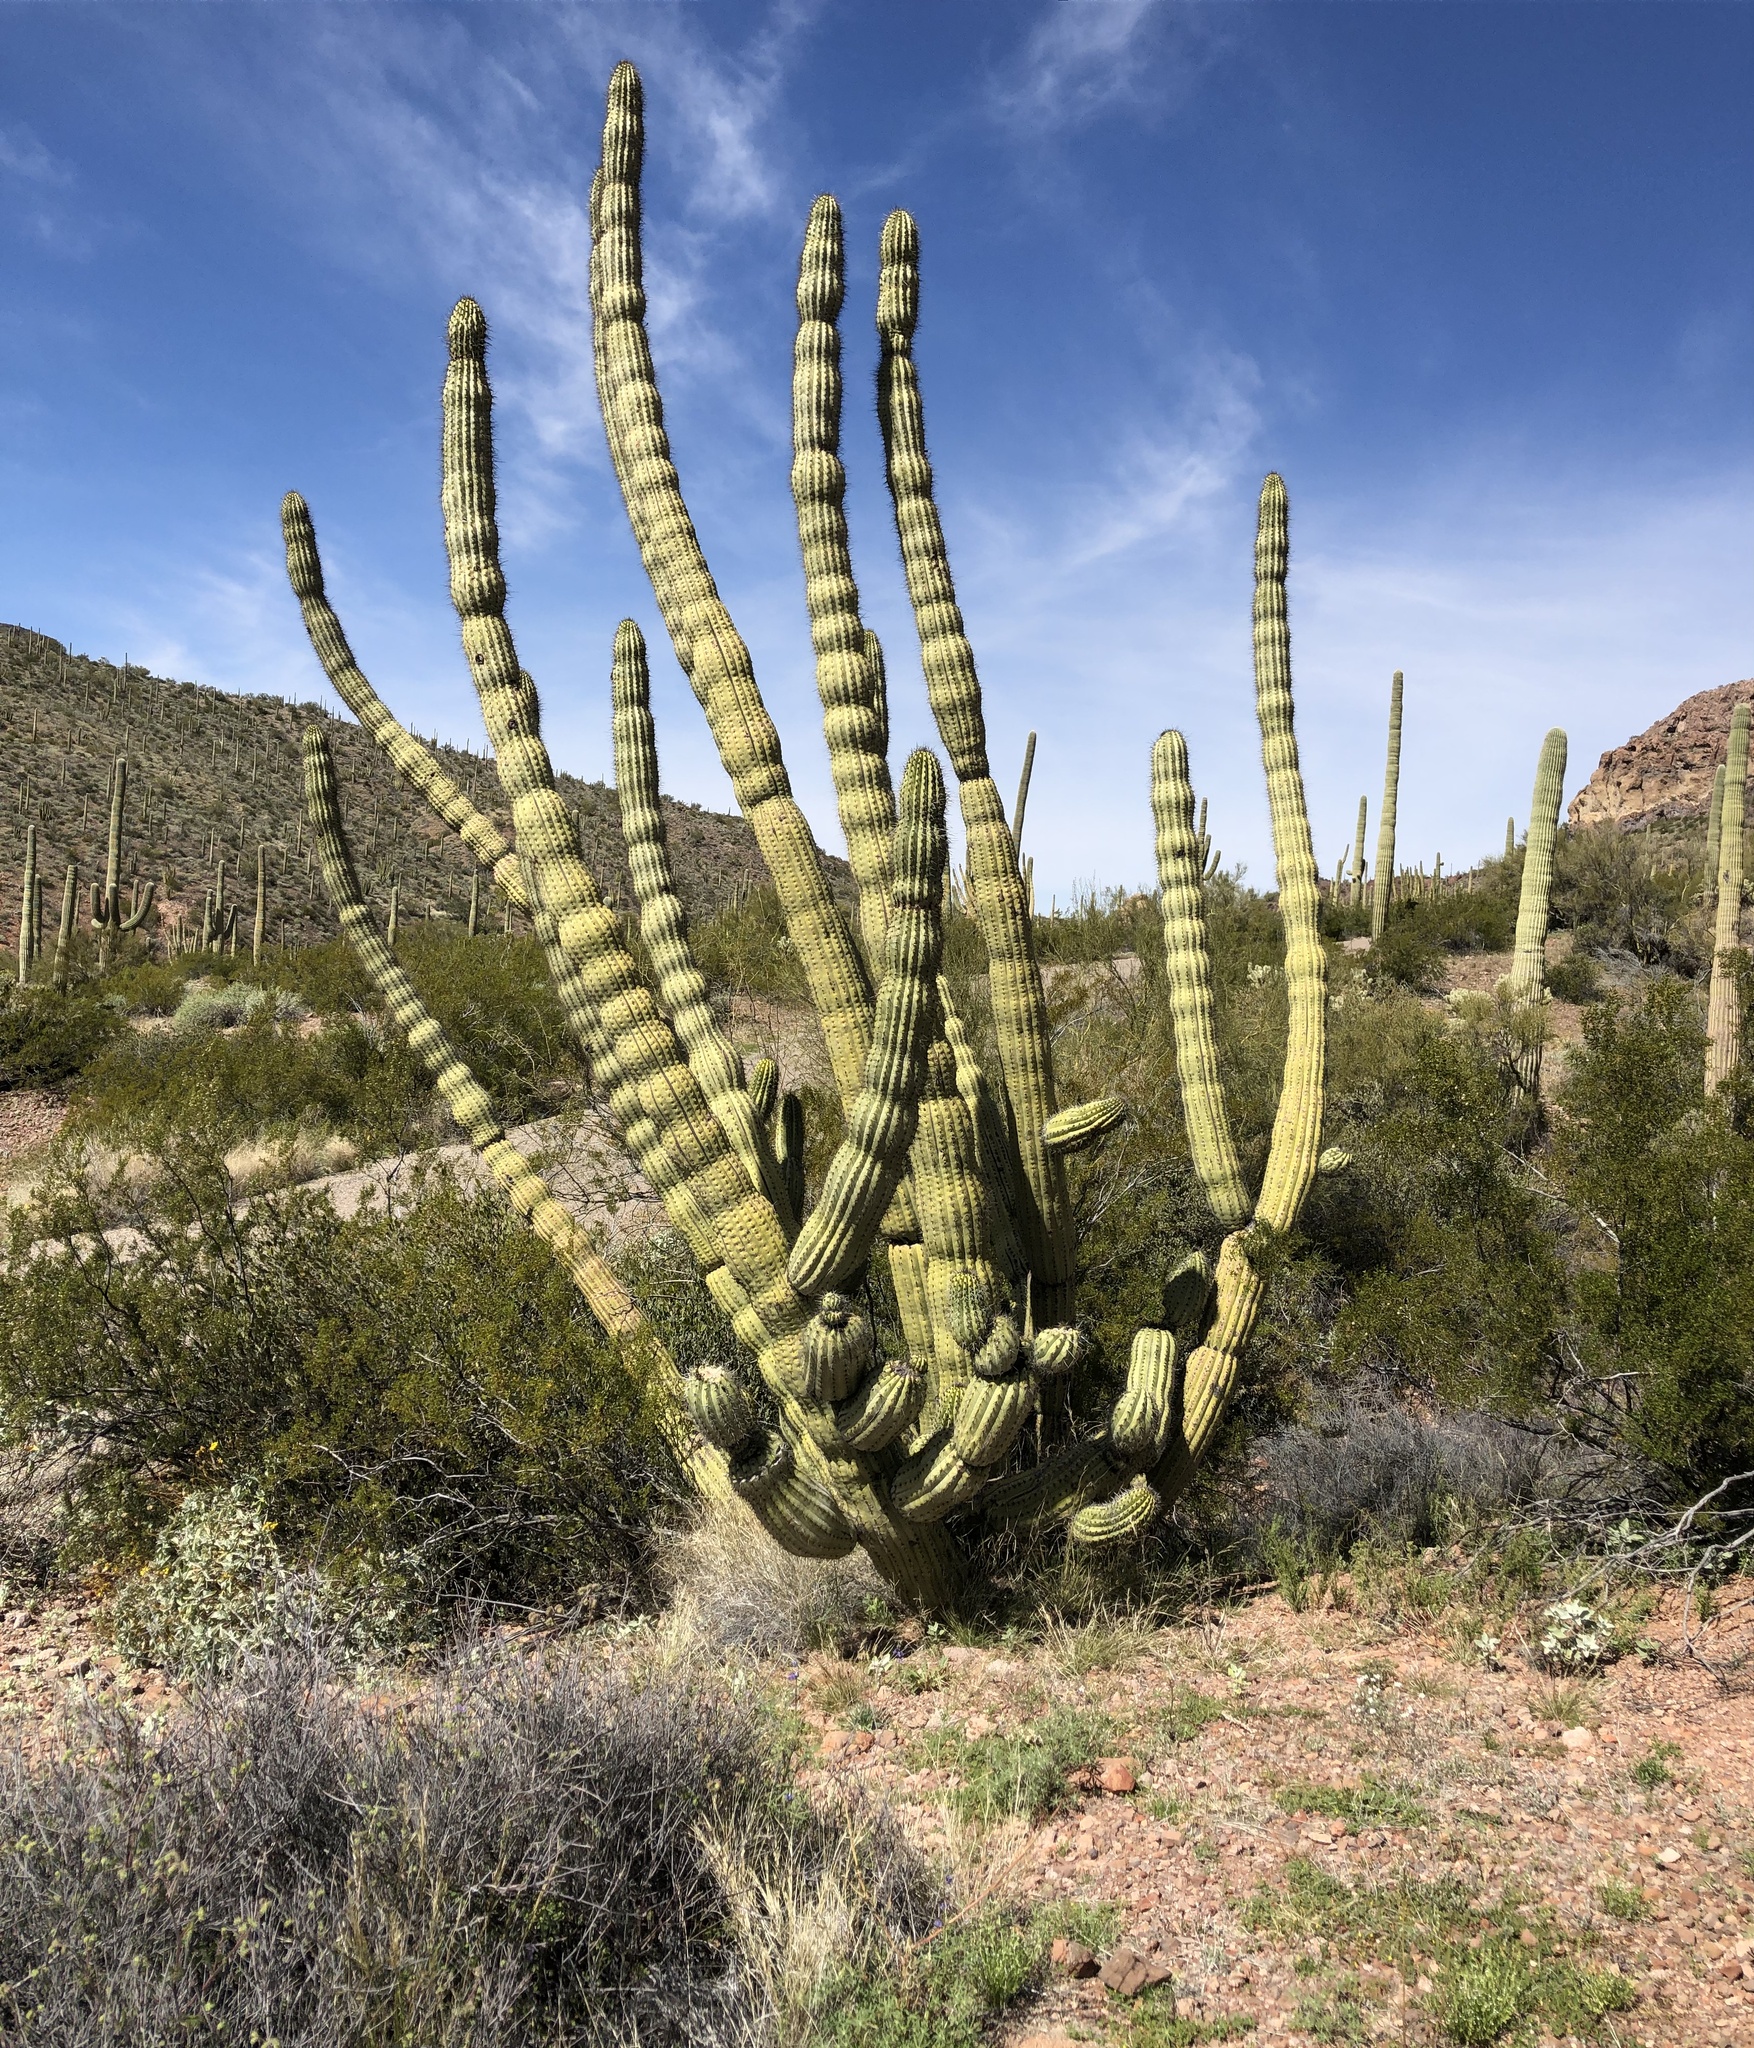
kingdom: Plantae
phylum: Tracheophyta
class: Magnoliopsida
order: Caryophyllales
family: Cactaceae
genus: Stenocereus
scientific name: Stenocereus thurberi
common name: Organ pipe cactus
